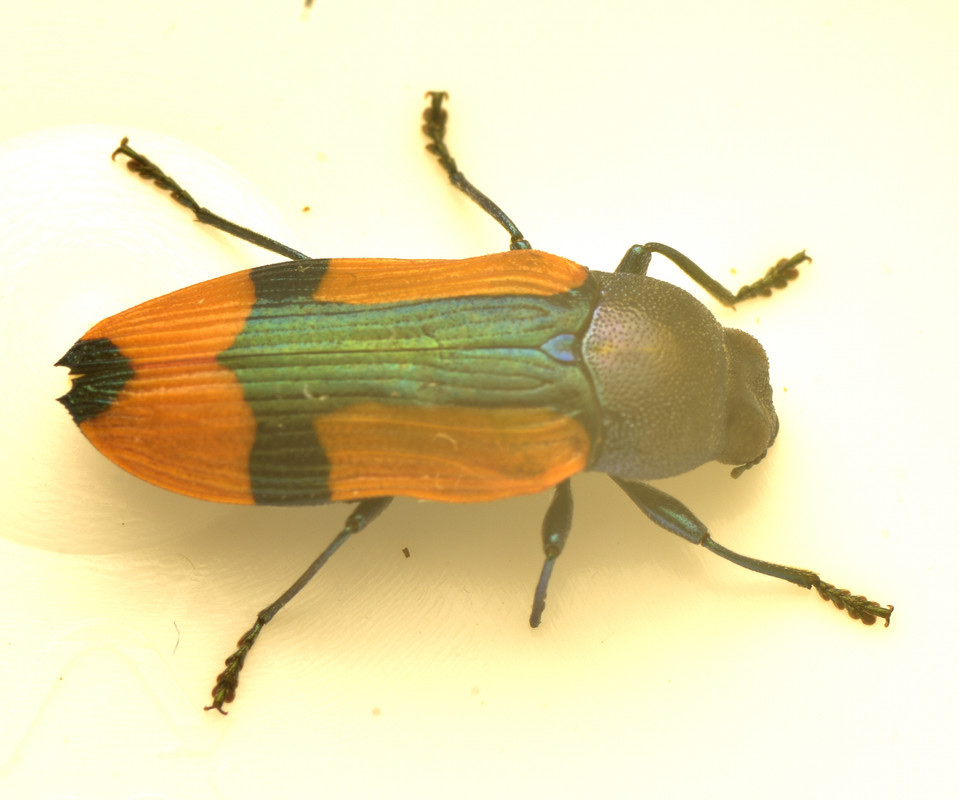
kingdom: Animalia
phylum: Arthropoda
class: Insecta
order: Coleoptera
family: Buprestidae
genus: Castiarina
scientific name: Castiarina skusei
